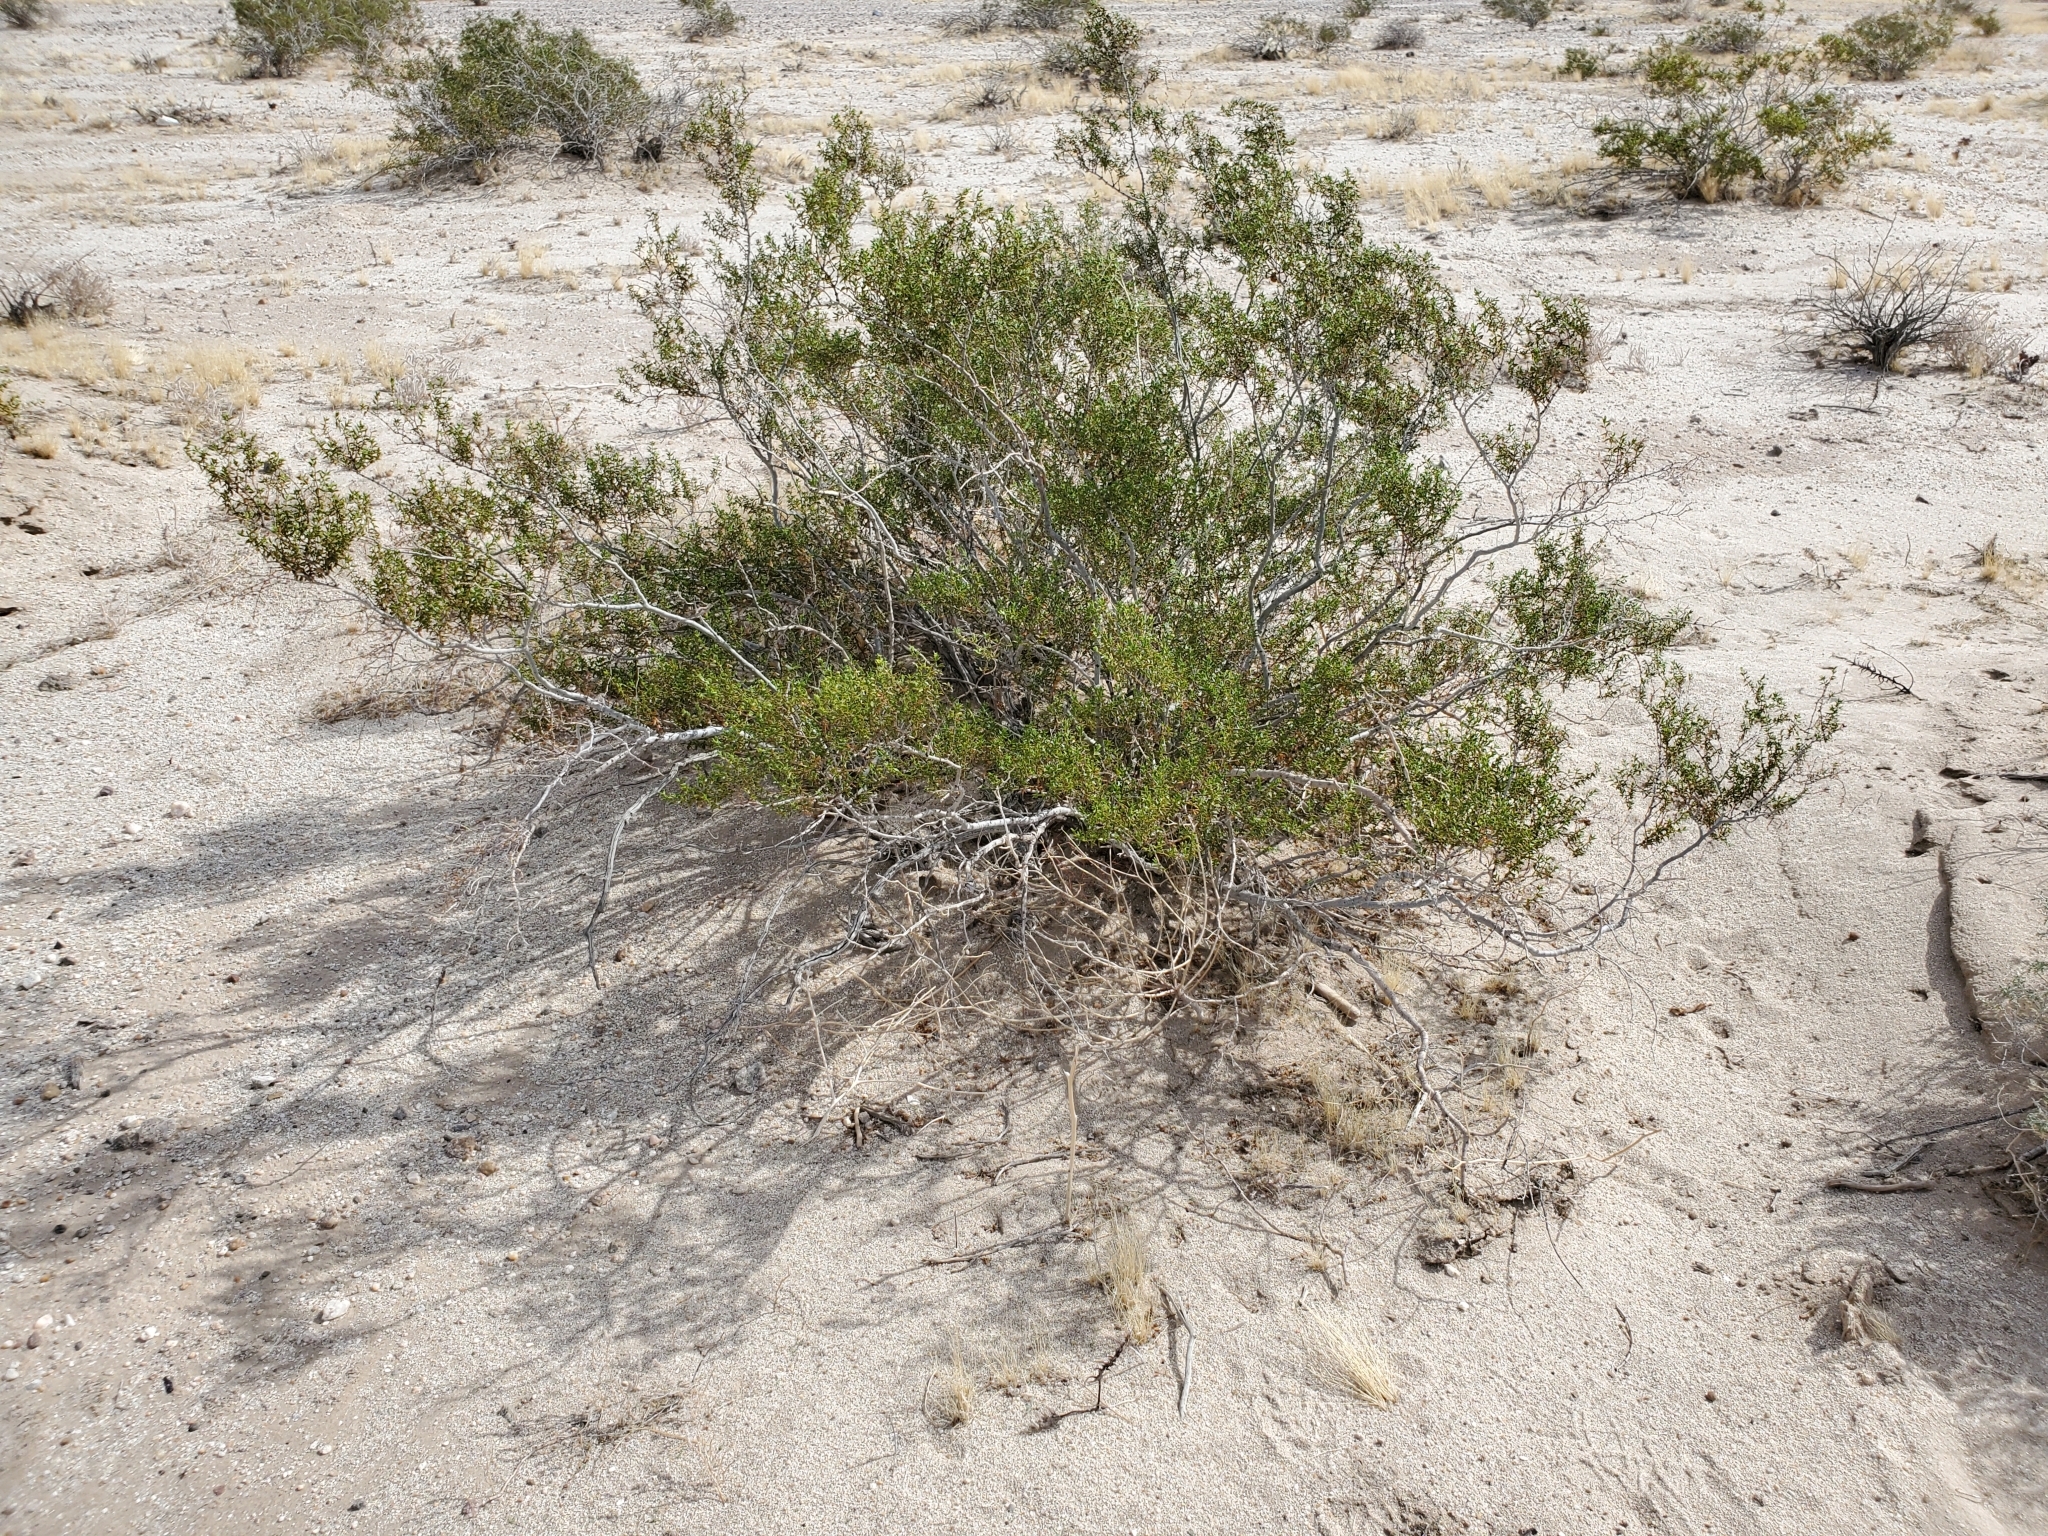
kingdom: Plantae
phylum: Tracheophyta
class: Magnoliopsida
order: Zygophyllales
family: Zygophyllaceae
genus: Larrea
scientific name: Larrea tridentata
